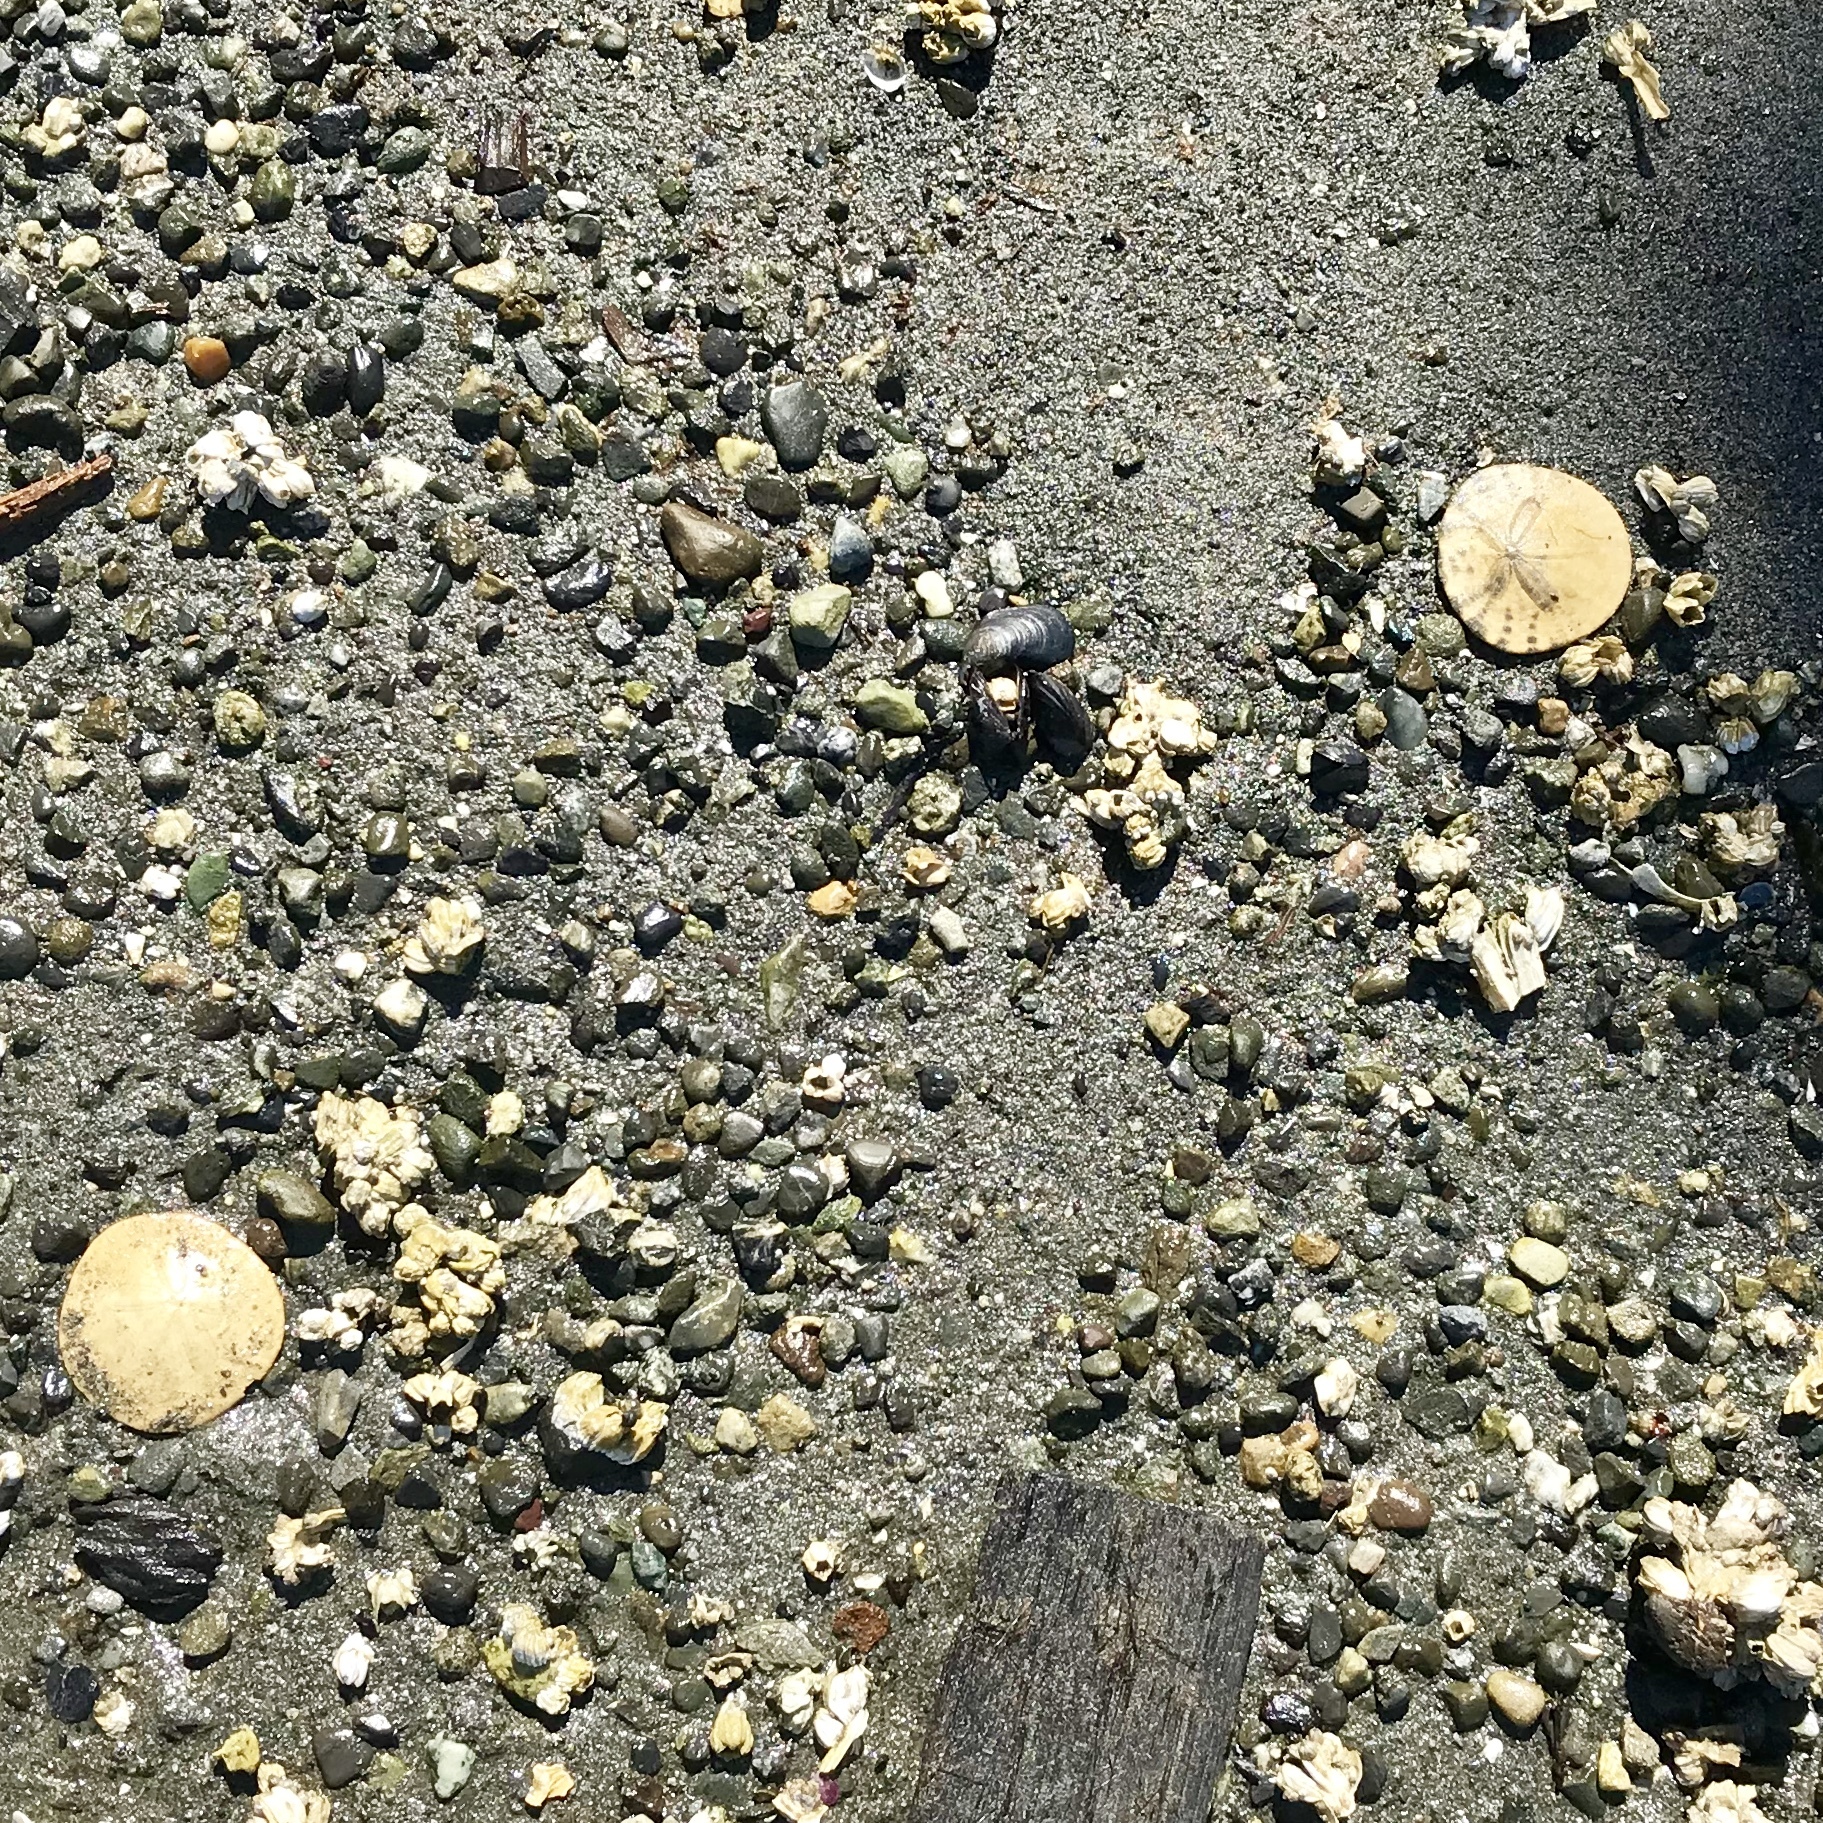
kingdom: Animalia
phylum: Echinodermata
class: Echinoidea
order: Echinolampadacea
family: Dendrasteridae
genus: Dendraster
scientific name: Dendraster excentricus
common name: Eccentric sand dollar sea urchin
